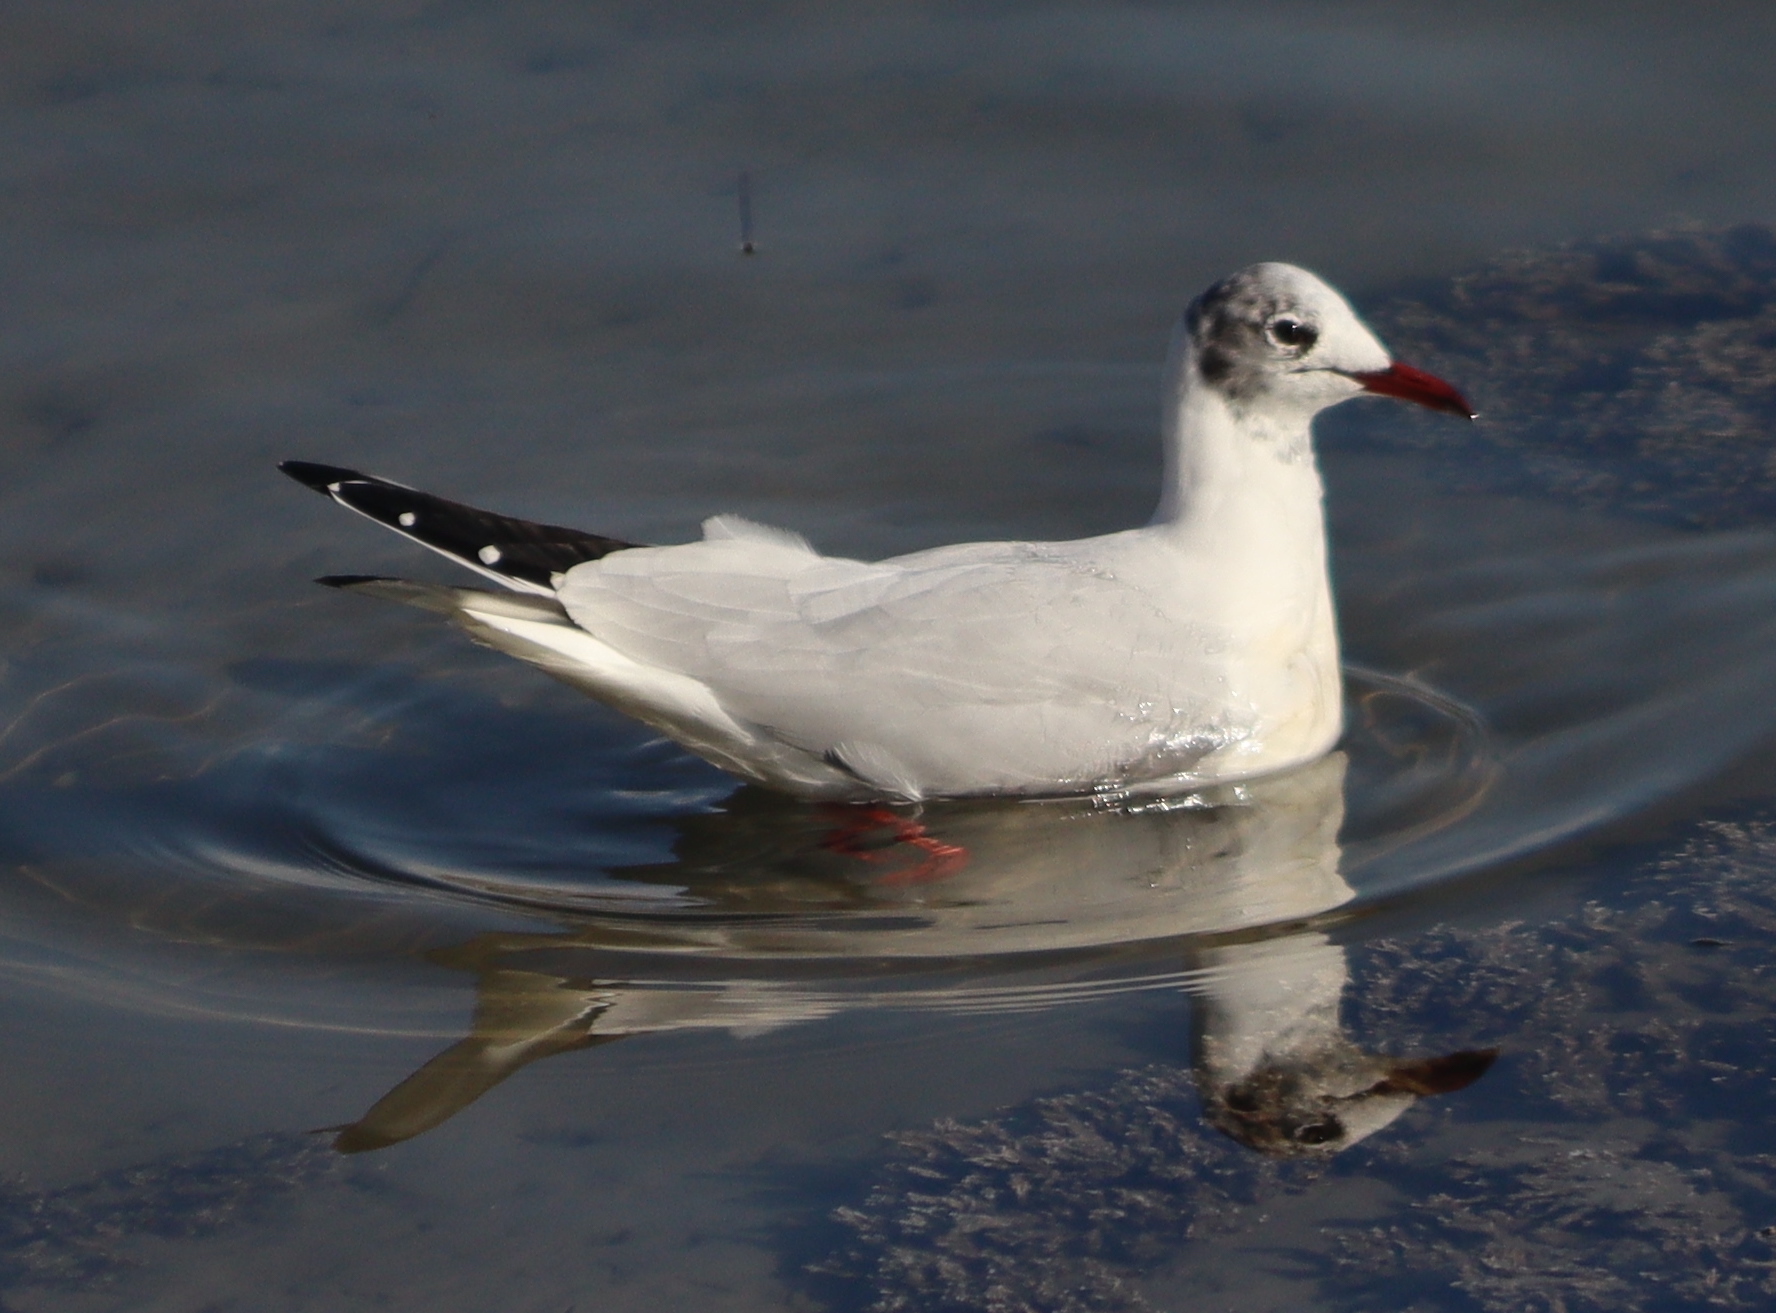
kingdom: Animalia
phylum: Chordata
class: Aves
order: Charadriiformes
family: Laridae
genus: Chroicocephalus
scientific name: Chroicocephalus ridibundus
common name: Black-headed gull
